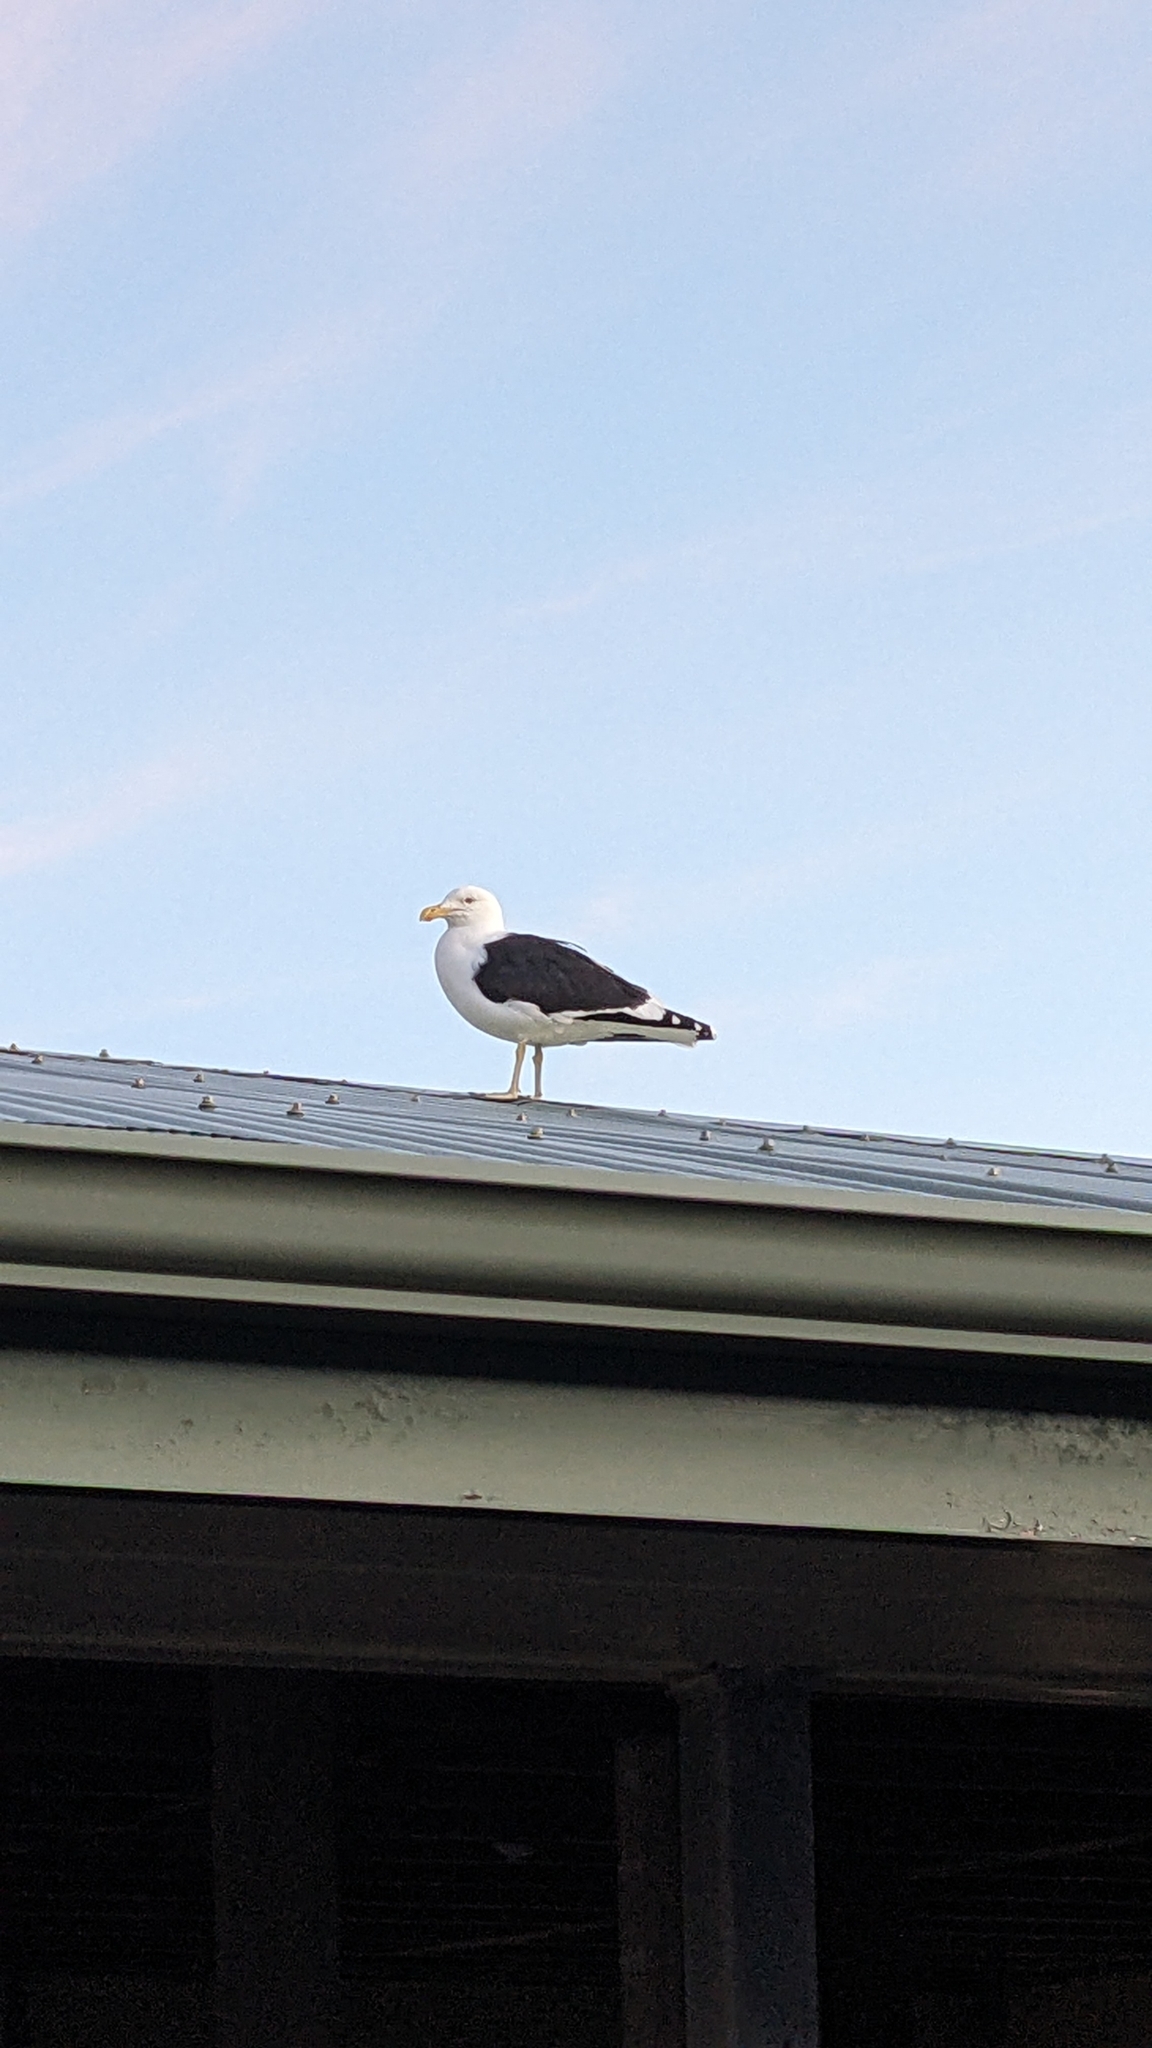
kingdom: Animalia
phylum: Chordata
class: Aves
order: Charadriiformes
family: Laridae
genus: Larus
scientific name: Larus dominicanus
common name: Kelp gull
